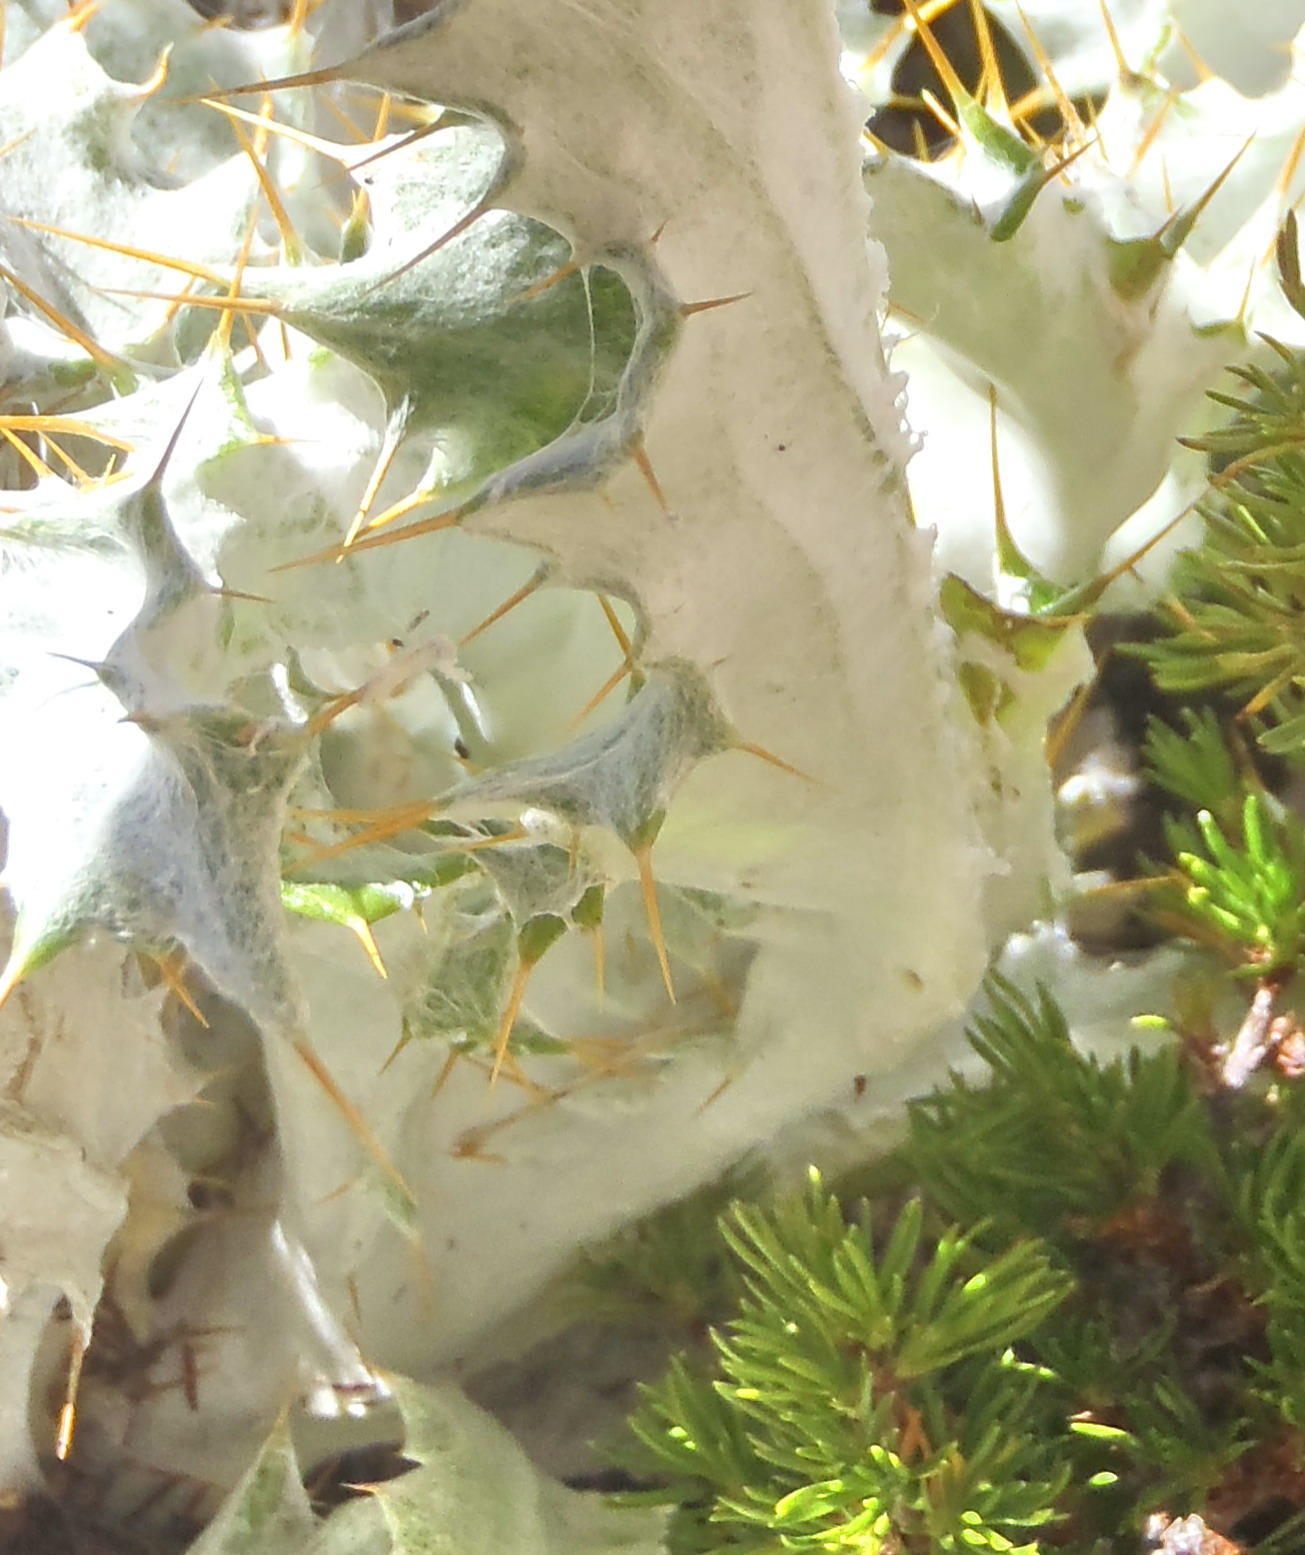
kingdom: Plantae
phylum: Tracheophyta
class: Magnoliopsida
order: Asterales
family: Asteraceae
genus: Berkheya
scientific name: Berkheya francisci
